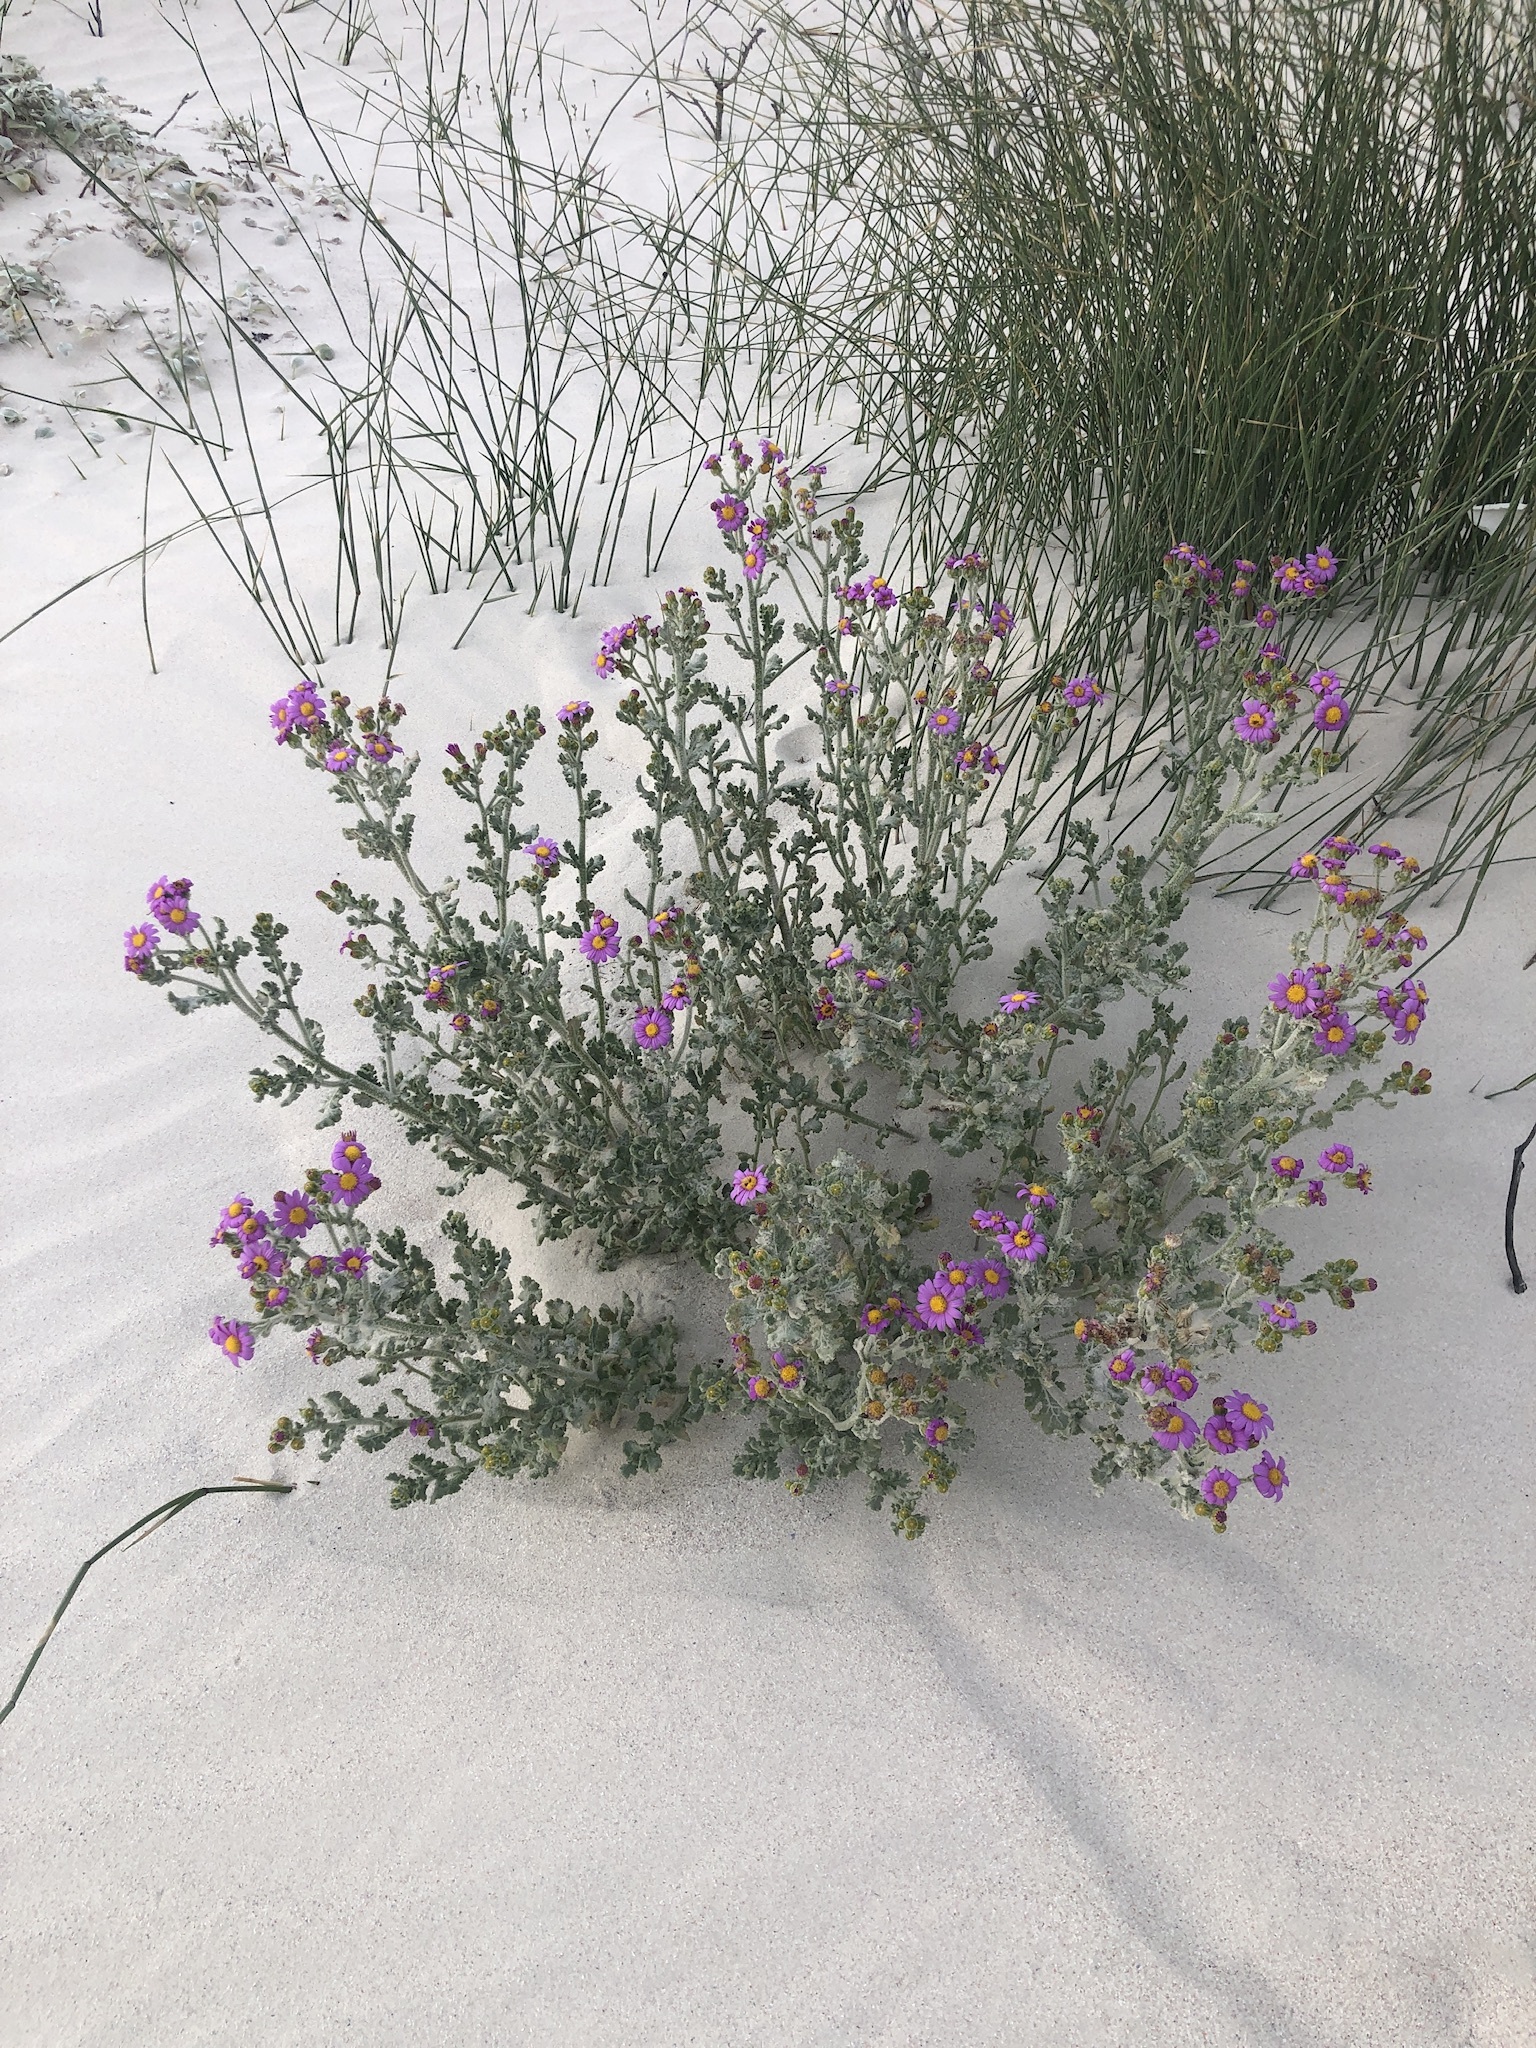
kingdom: Plantae
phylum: Tracheophyta
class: Magnoliopsida
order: Asterales
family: Asteraceae
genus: Senecio
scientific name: Senecio elegans
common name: Purple groundsel
